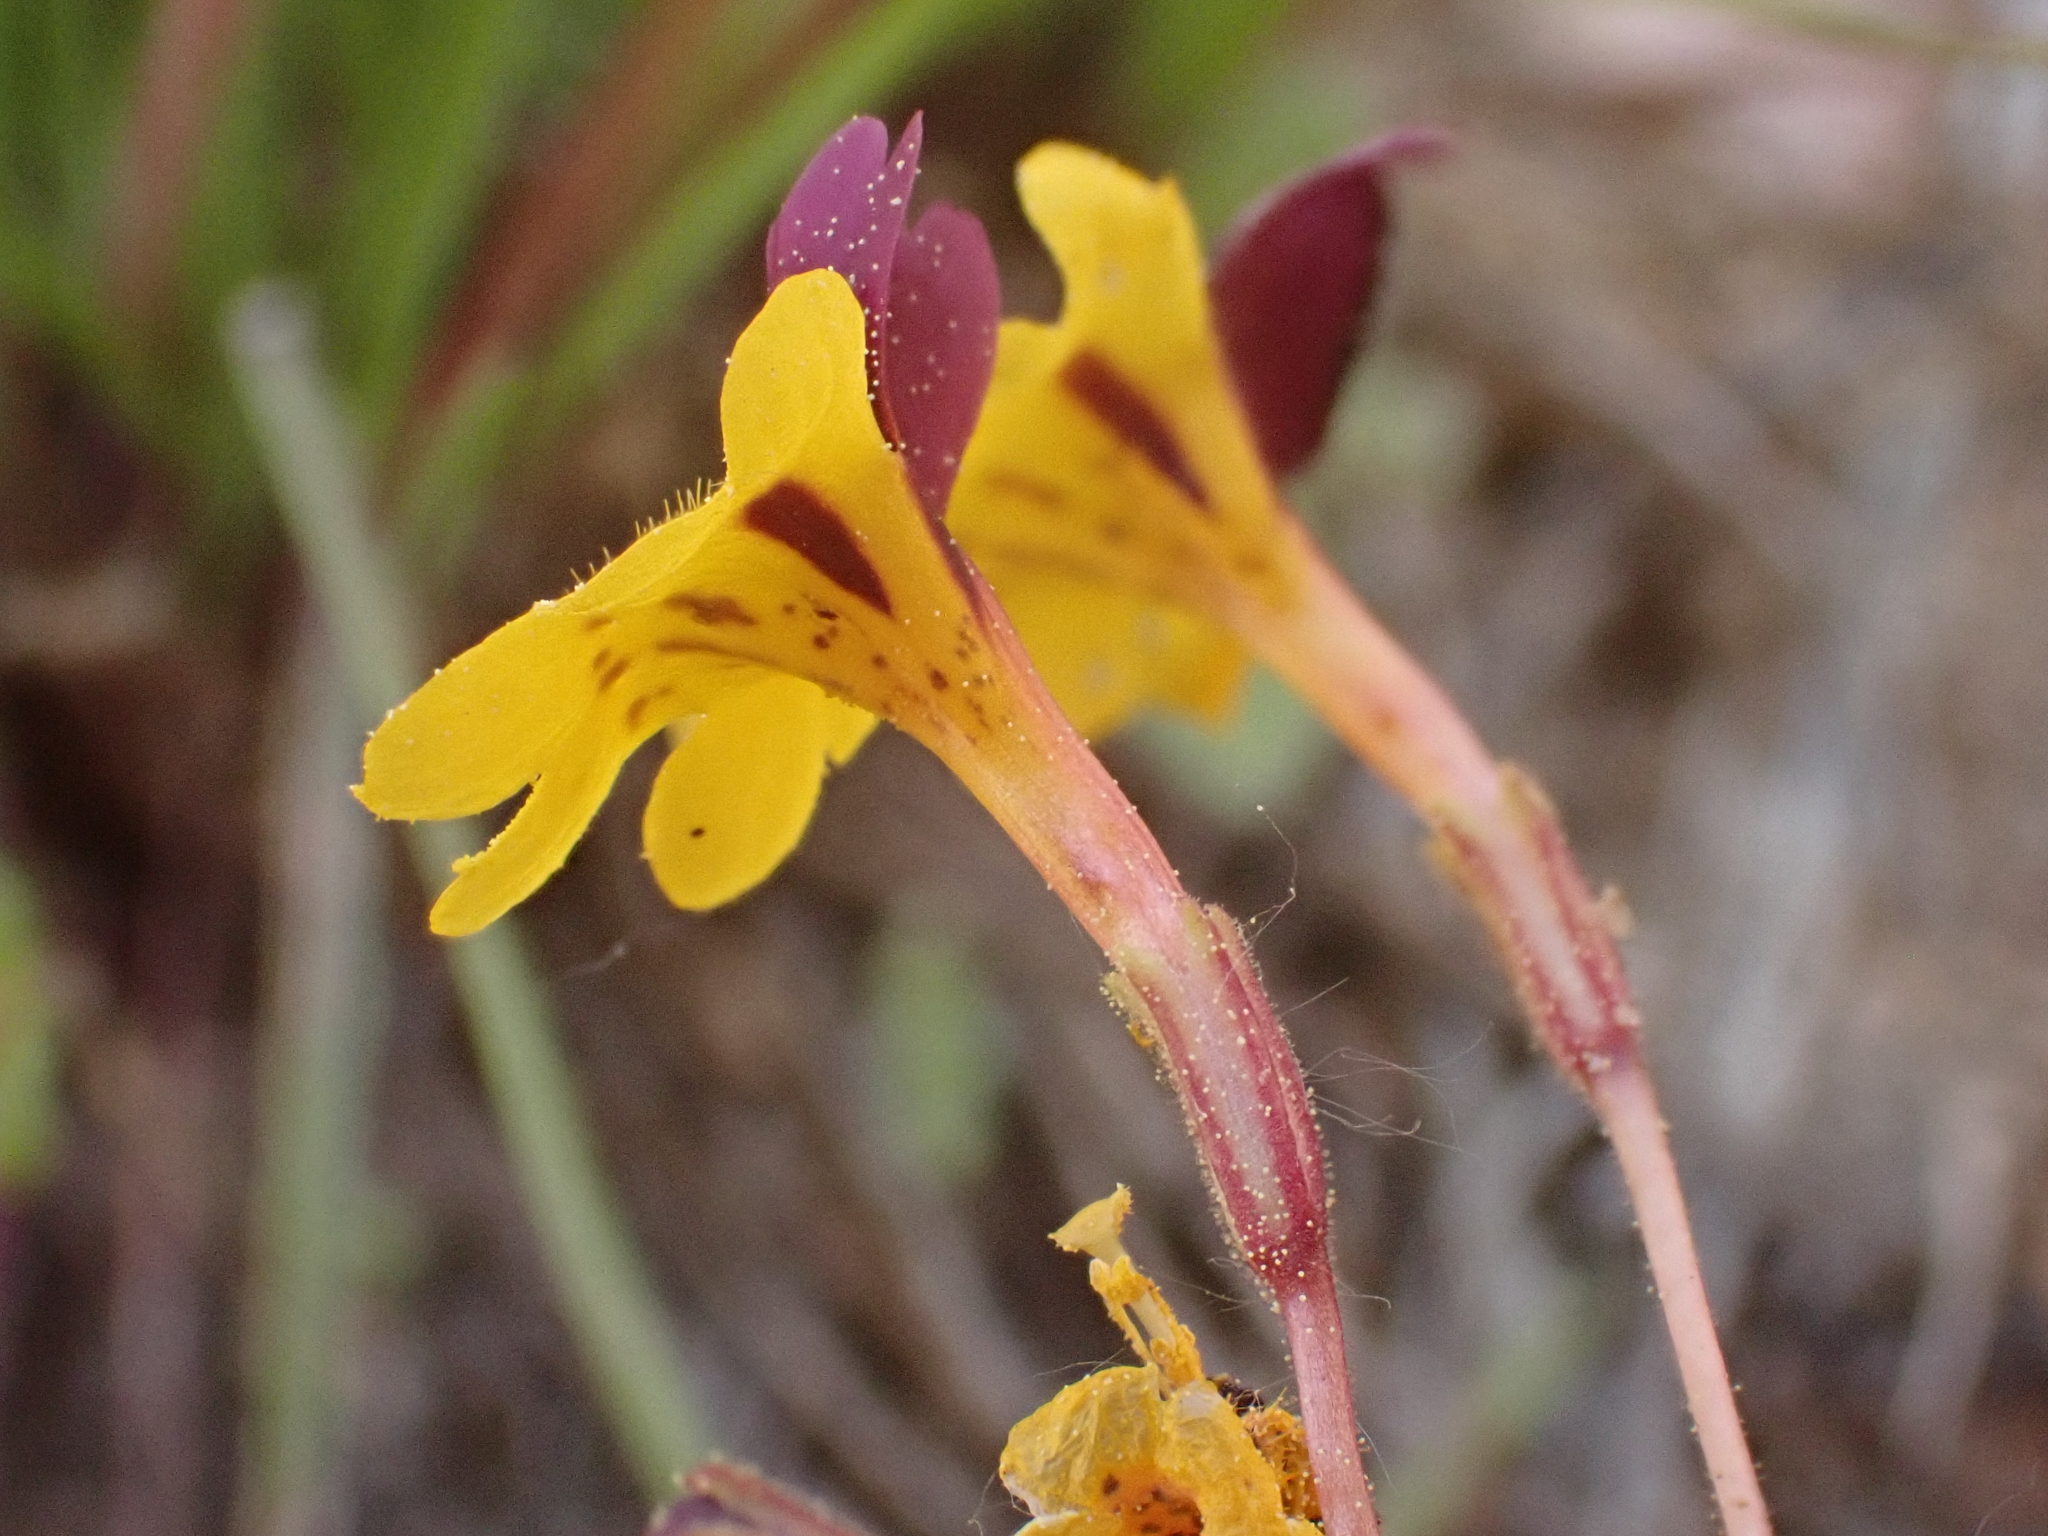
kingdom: Plantae
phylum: Tracheophyta
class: Magnoliopsida
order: Lamiales
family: Phrymaceae
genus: Erythranthe
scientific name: Erythranthe barbata
